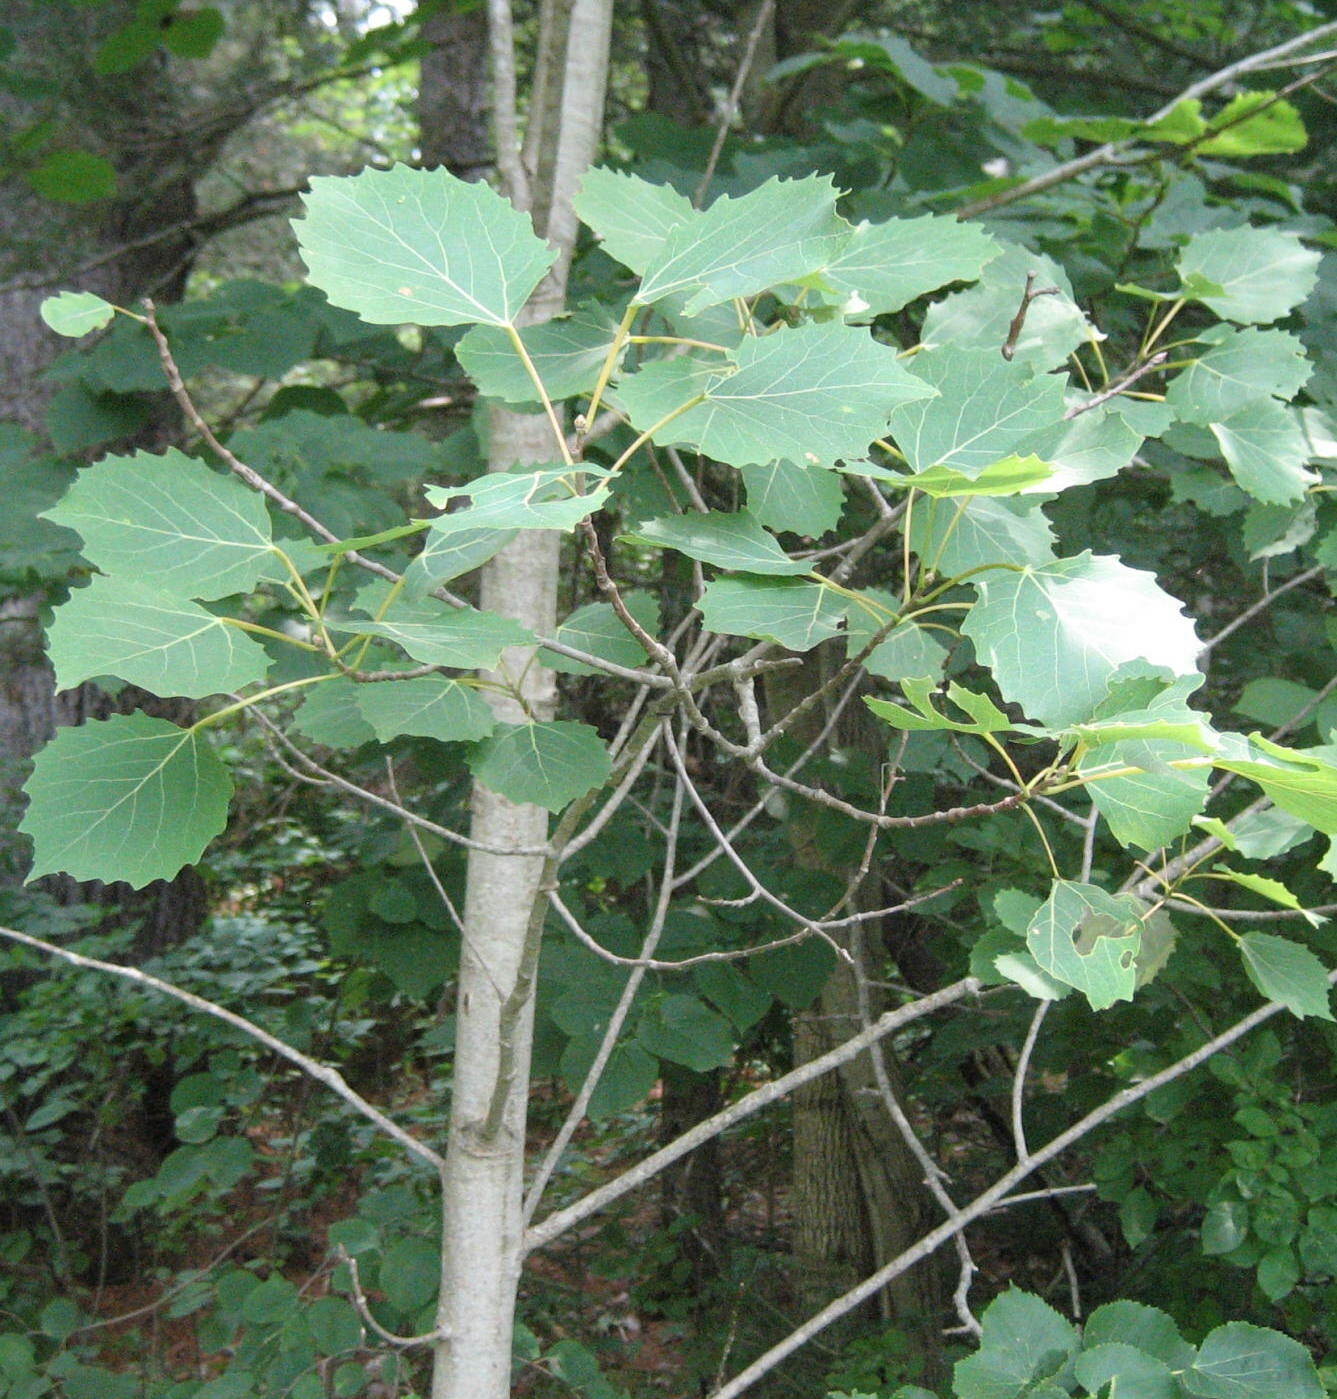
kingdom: Plantae
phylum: Tracheophyta
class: Magnoliopsida
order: Malpighiales
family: Salicaceae
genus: Populus
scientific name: Populus grandidentata
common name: Bigtooth aspen
